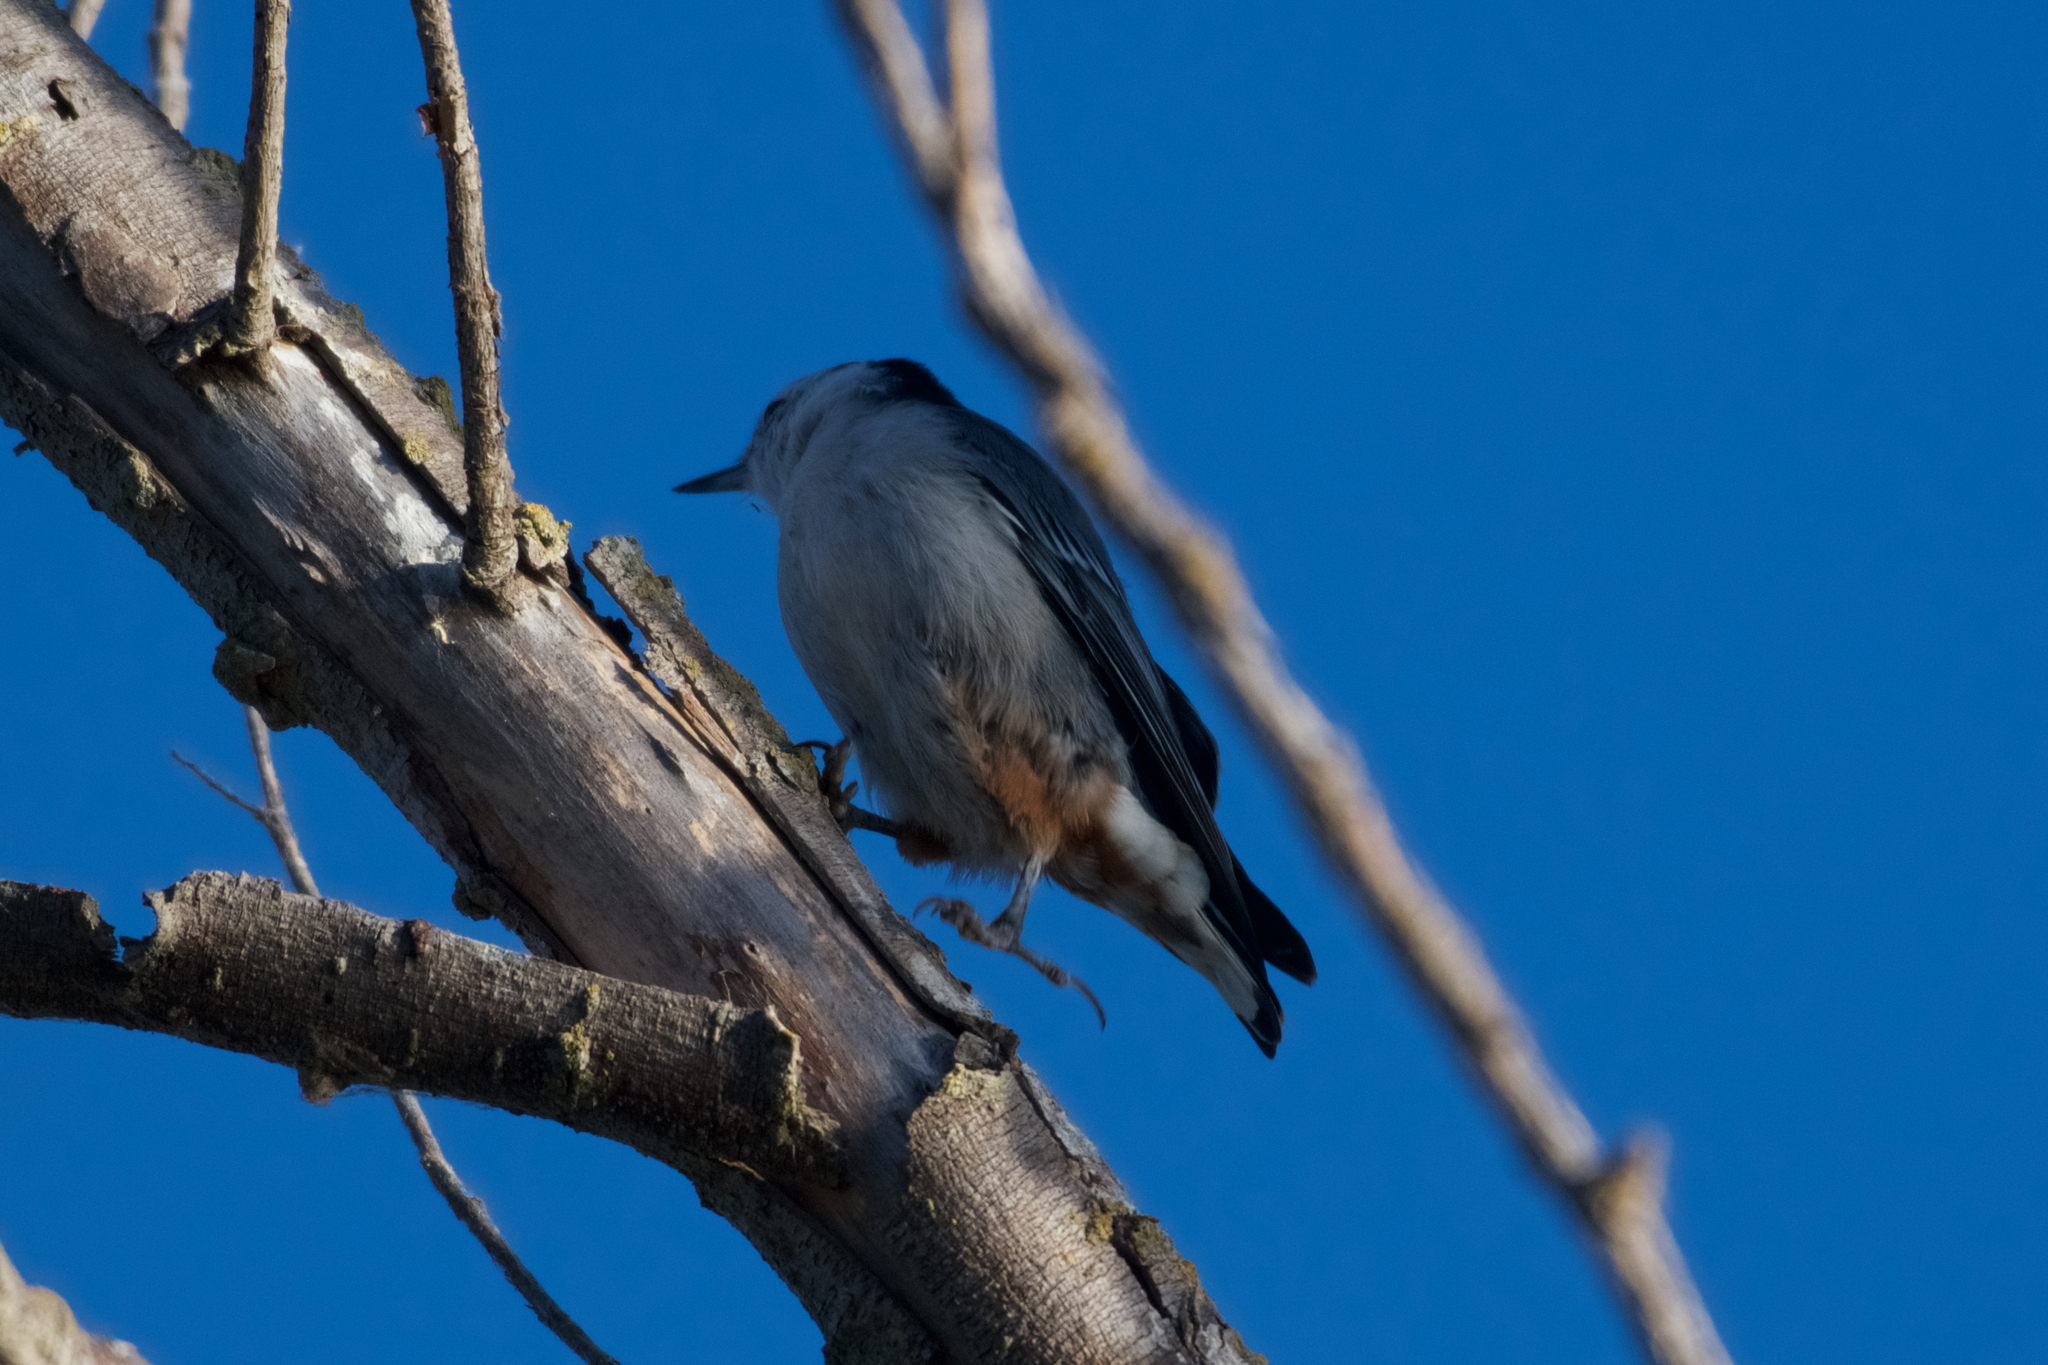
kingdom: Animalia
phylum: Chordata
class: Aves
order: Passeriformes
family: Sittidae
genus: Sitta
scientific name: Sitta carolinensis
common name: White-breasted nuthatch
